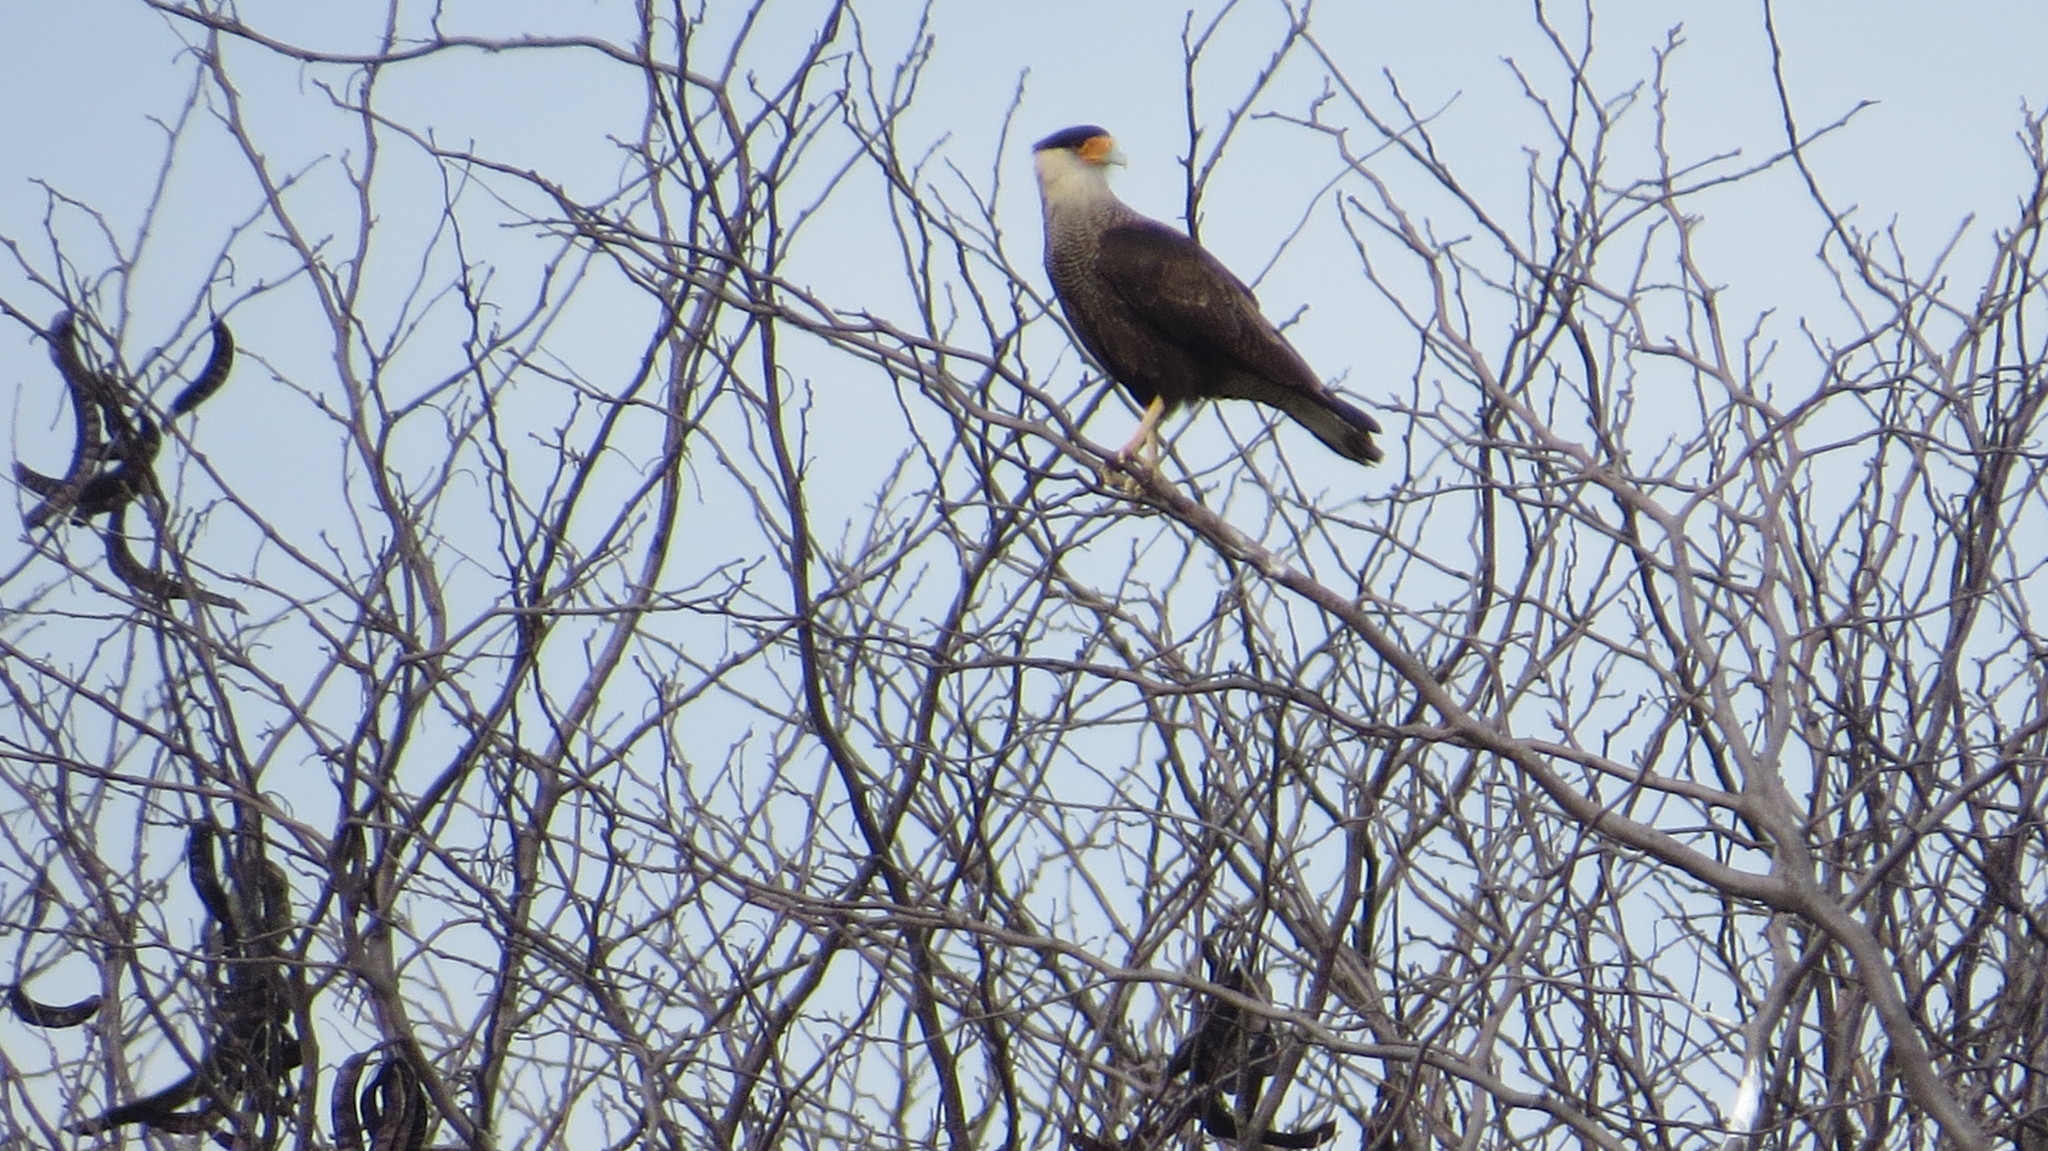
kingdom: Animalia
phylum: Chordata
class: Aves
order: Falconiformes
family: Falconidae
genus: Caracara
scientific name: Caracara plancus
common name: Southern caracara
